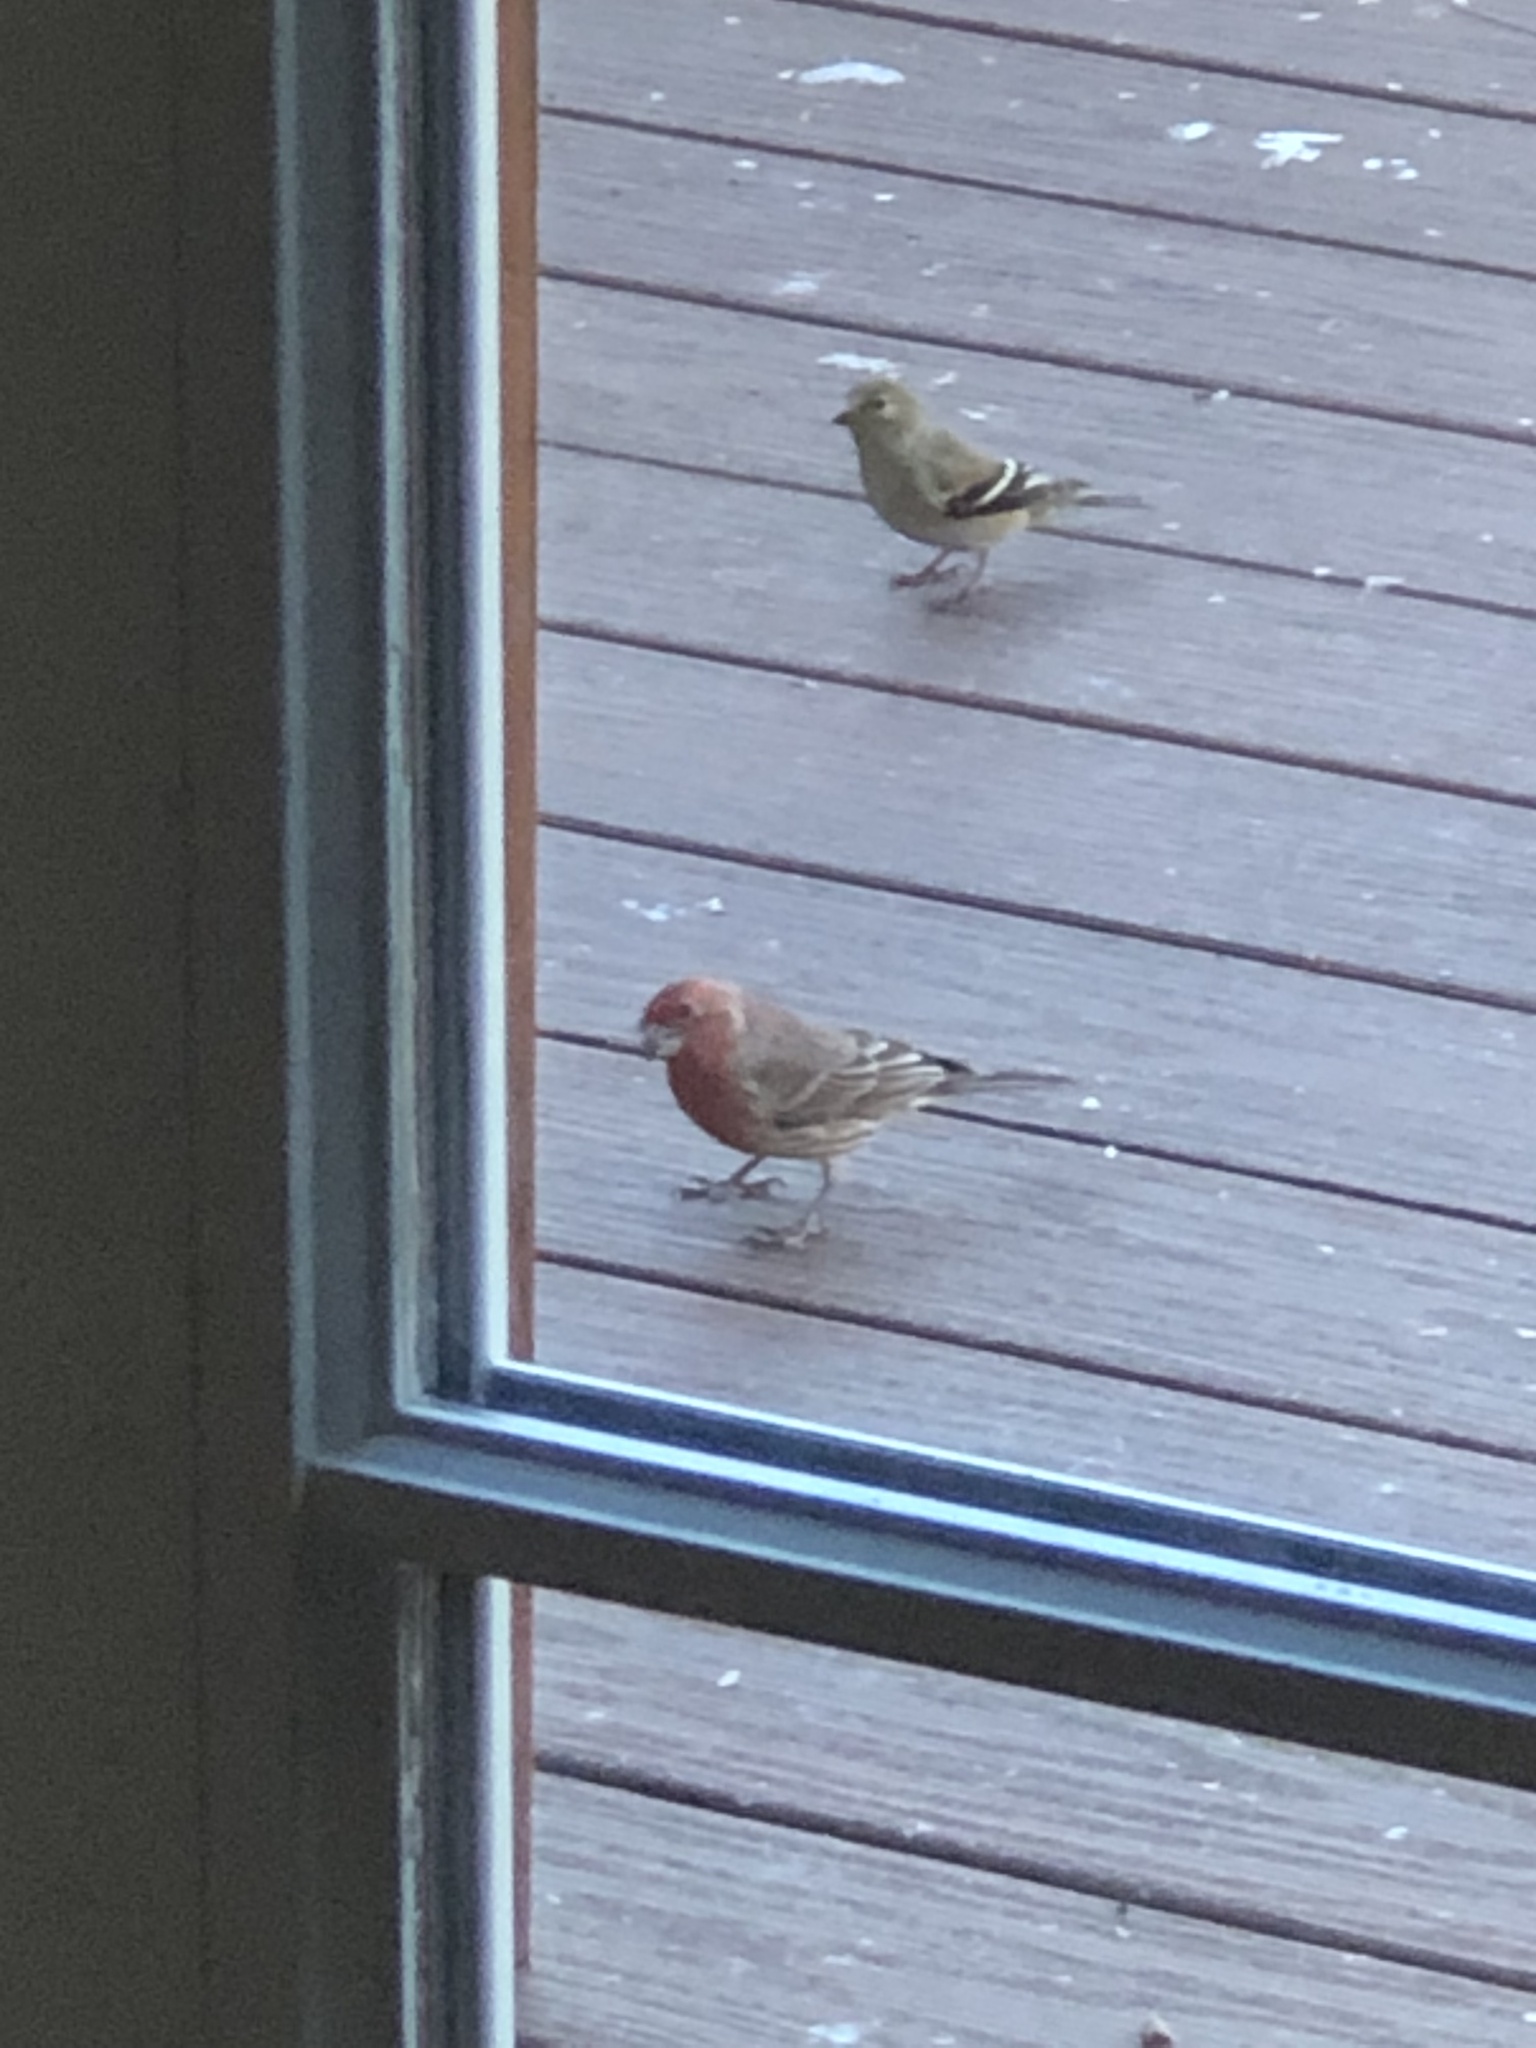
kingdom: Animalia
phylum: Chordata
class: Aves
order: Passeriformes
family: Fringillidae
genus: Haemorhous
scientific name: Haemorhous mexicanus
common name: House finch
